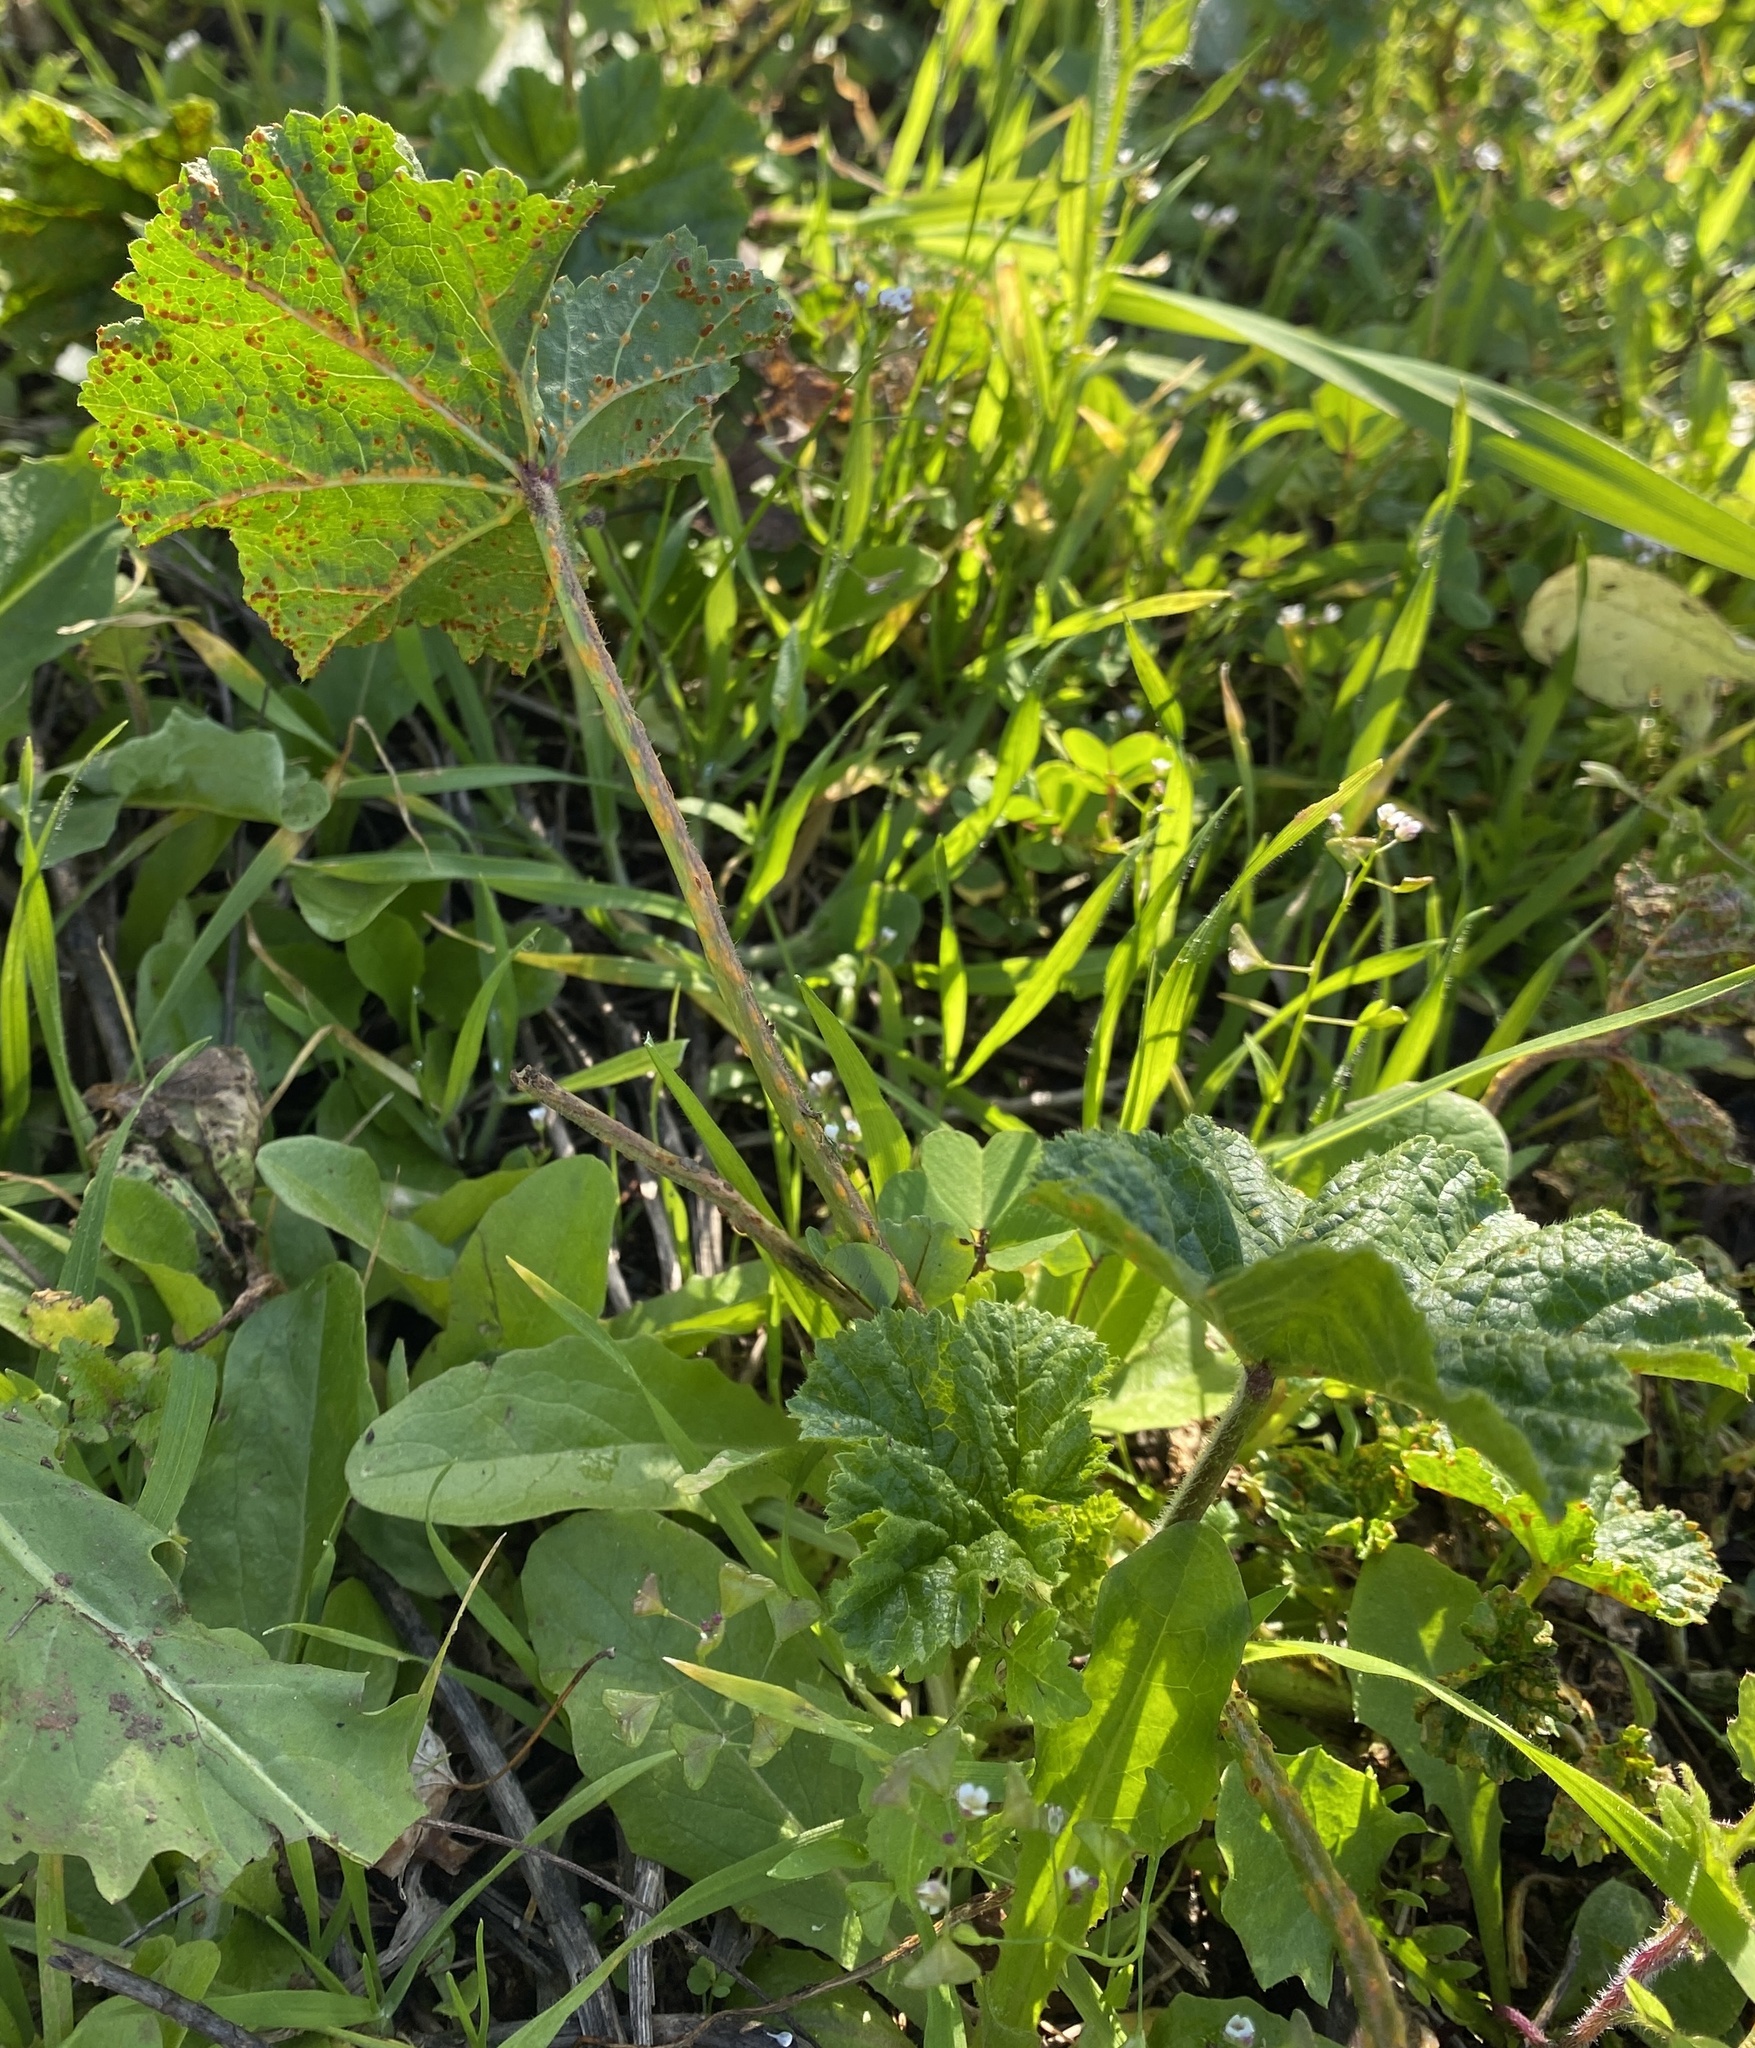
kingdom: Fungi
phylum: Basidiomycota
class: Pucciniomycetes
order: Pucciniales
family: Pucciniaceae
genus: Puccinia
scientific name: Puccinia malvacearum
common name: Hollyhock rust
